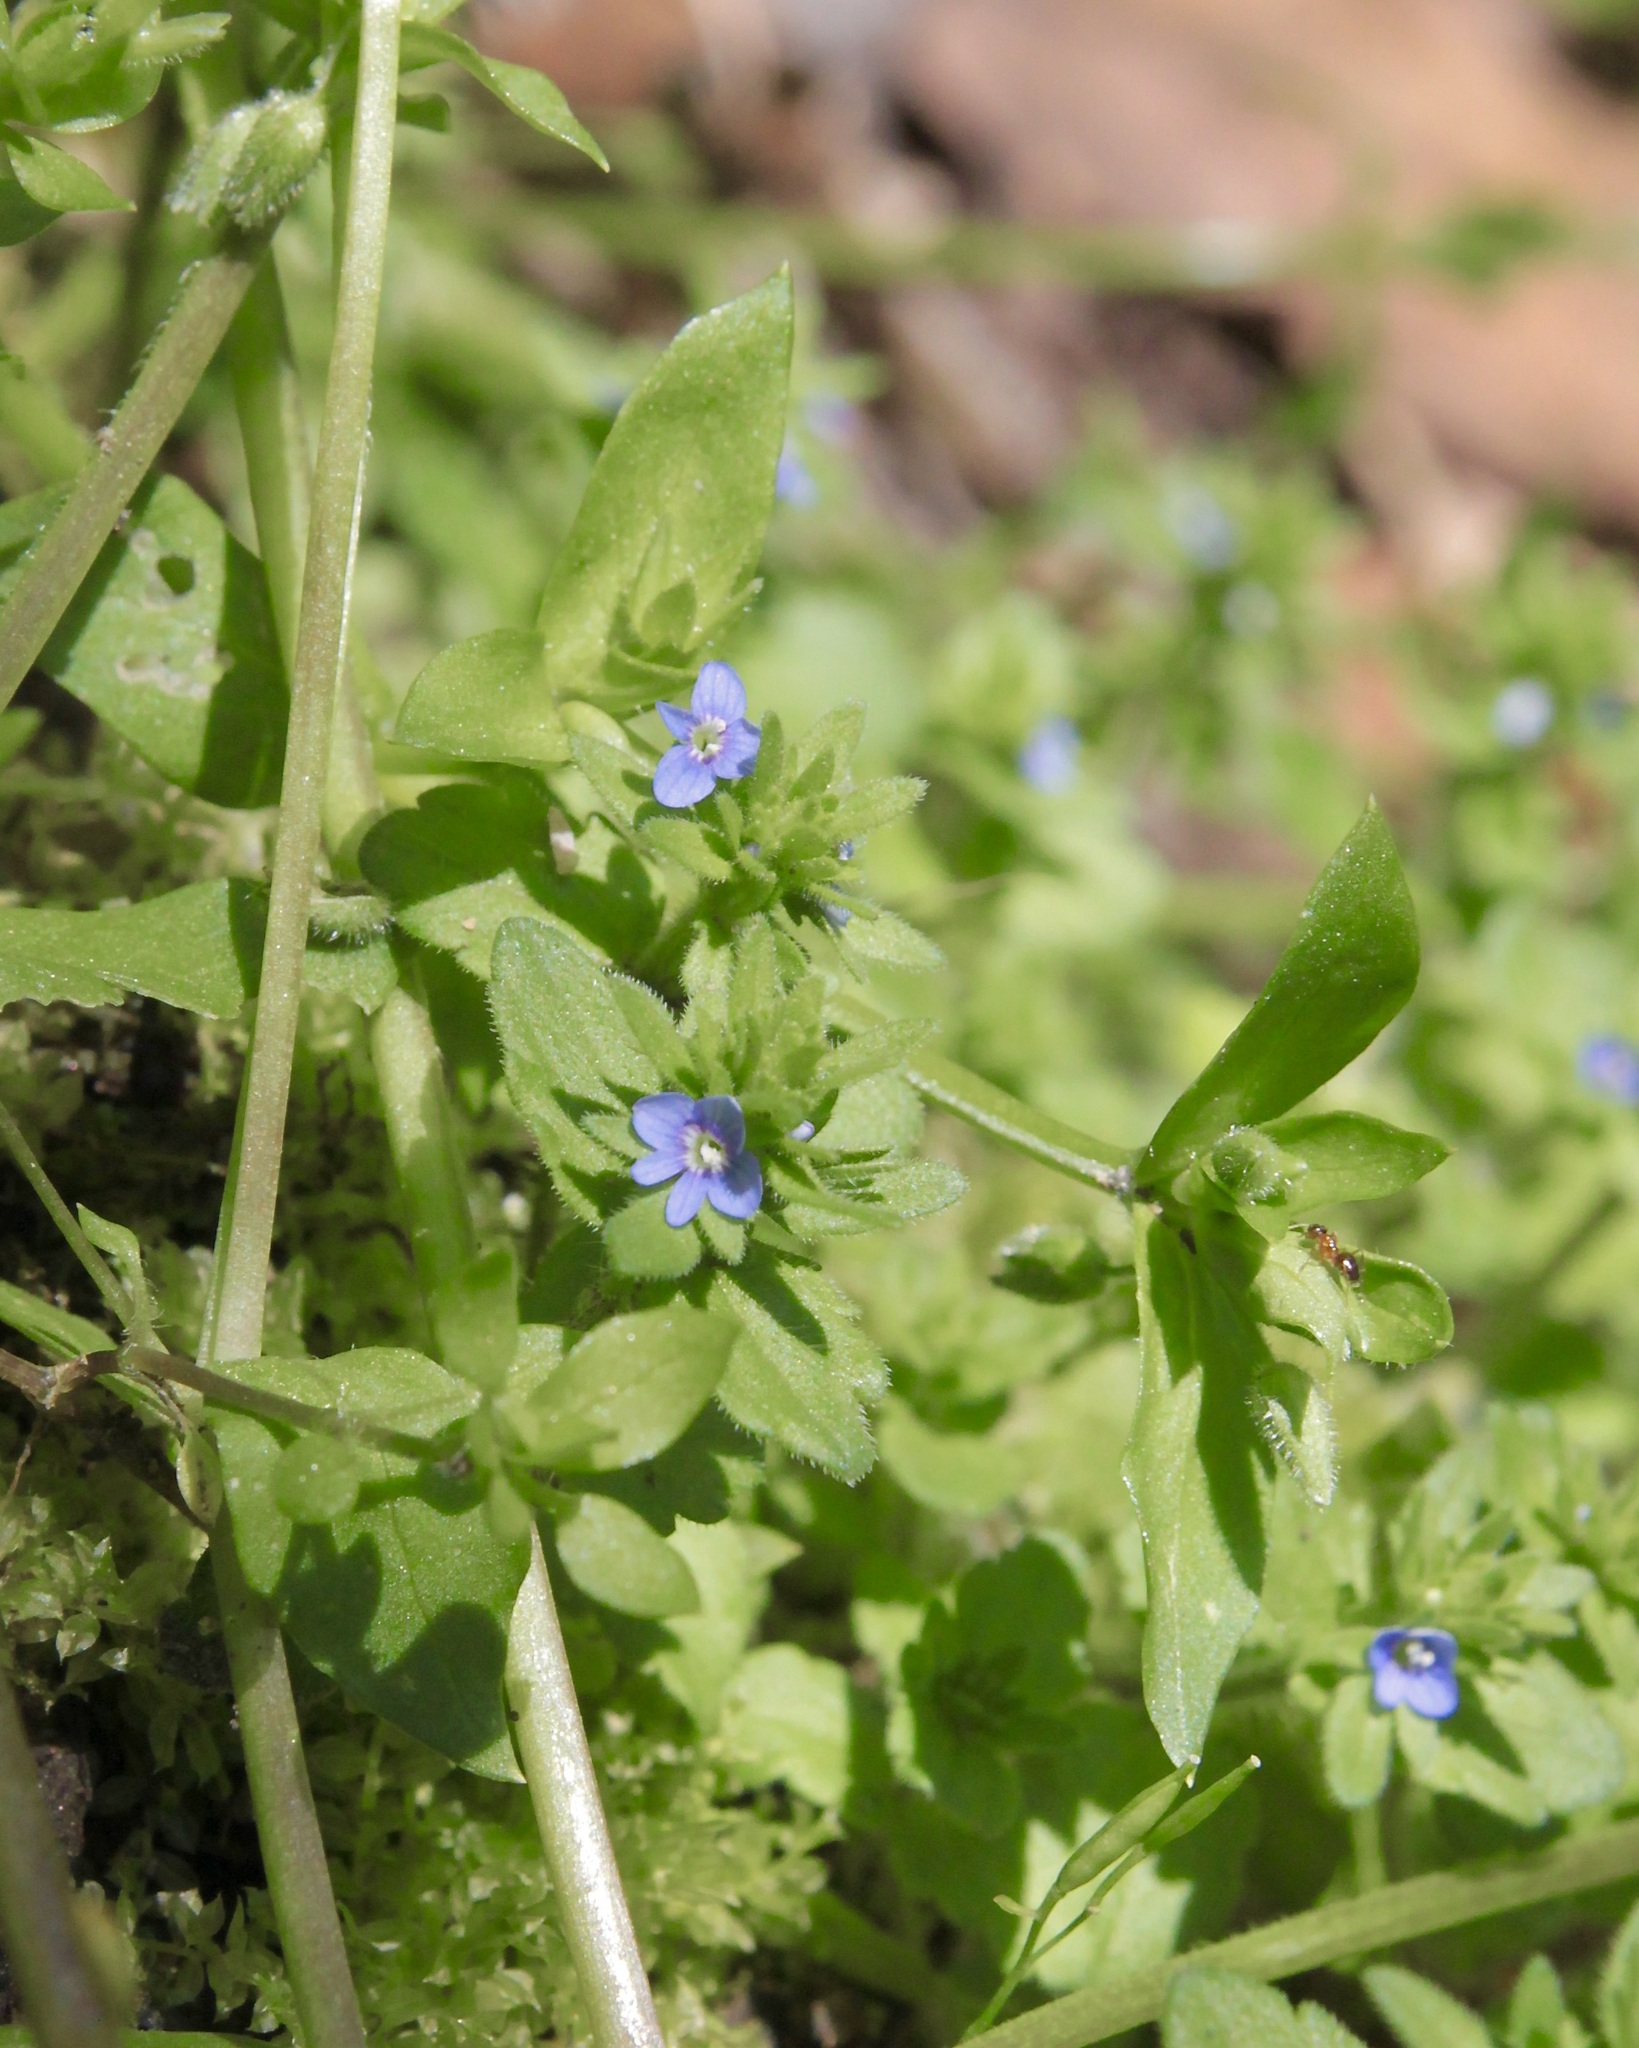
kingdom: Plantae
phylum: Tracheophyta
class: Magnoliopsida
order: Lamiales
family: Plantaginaceae
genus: Veronica
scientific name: Veronica arvensis
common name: Corn speedwell
